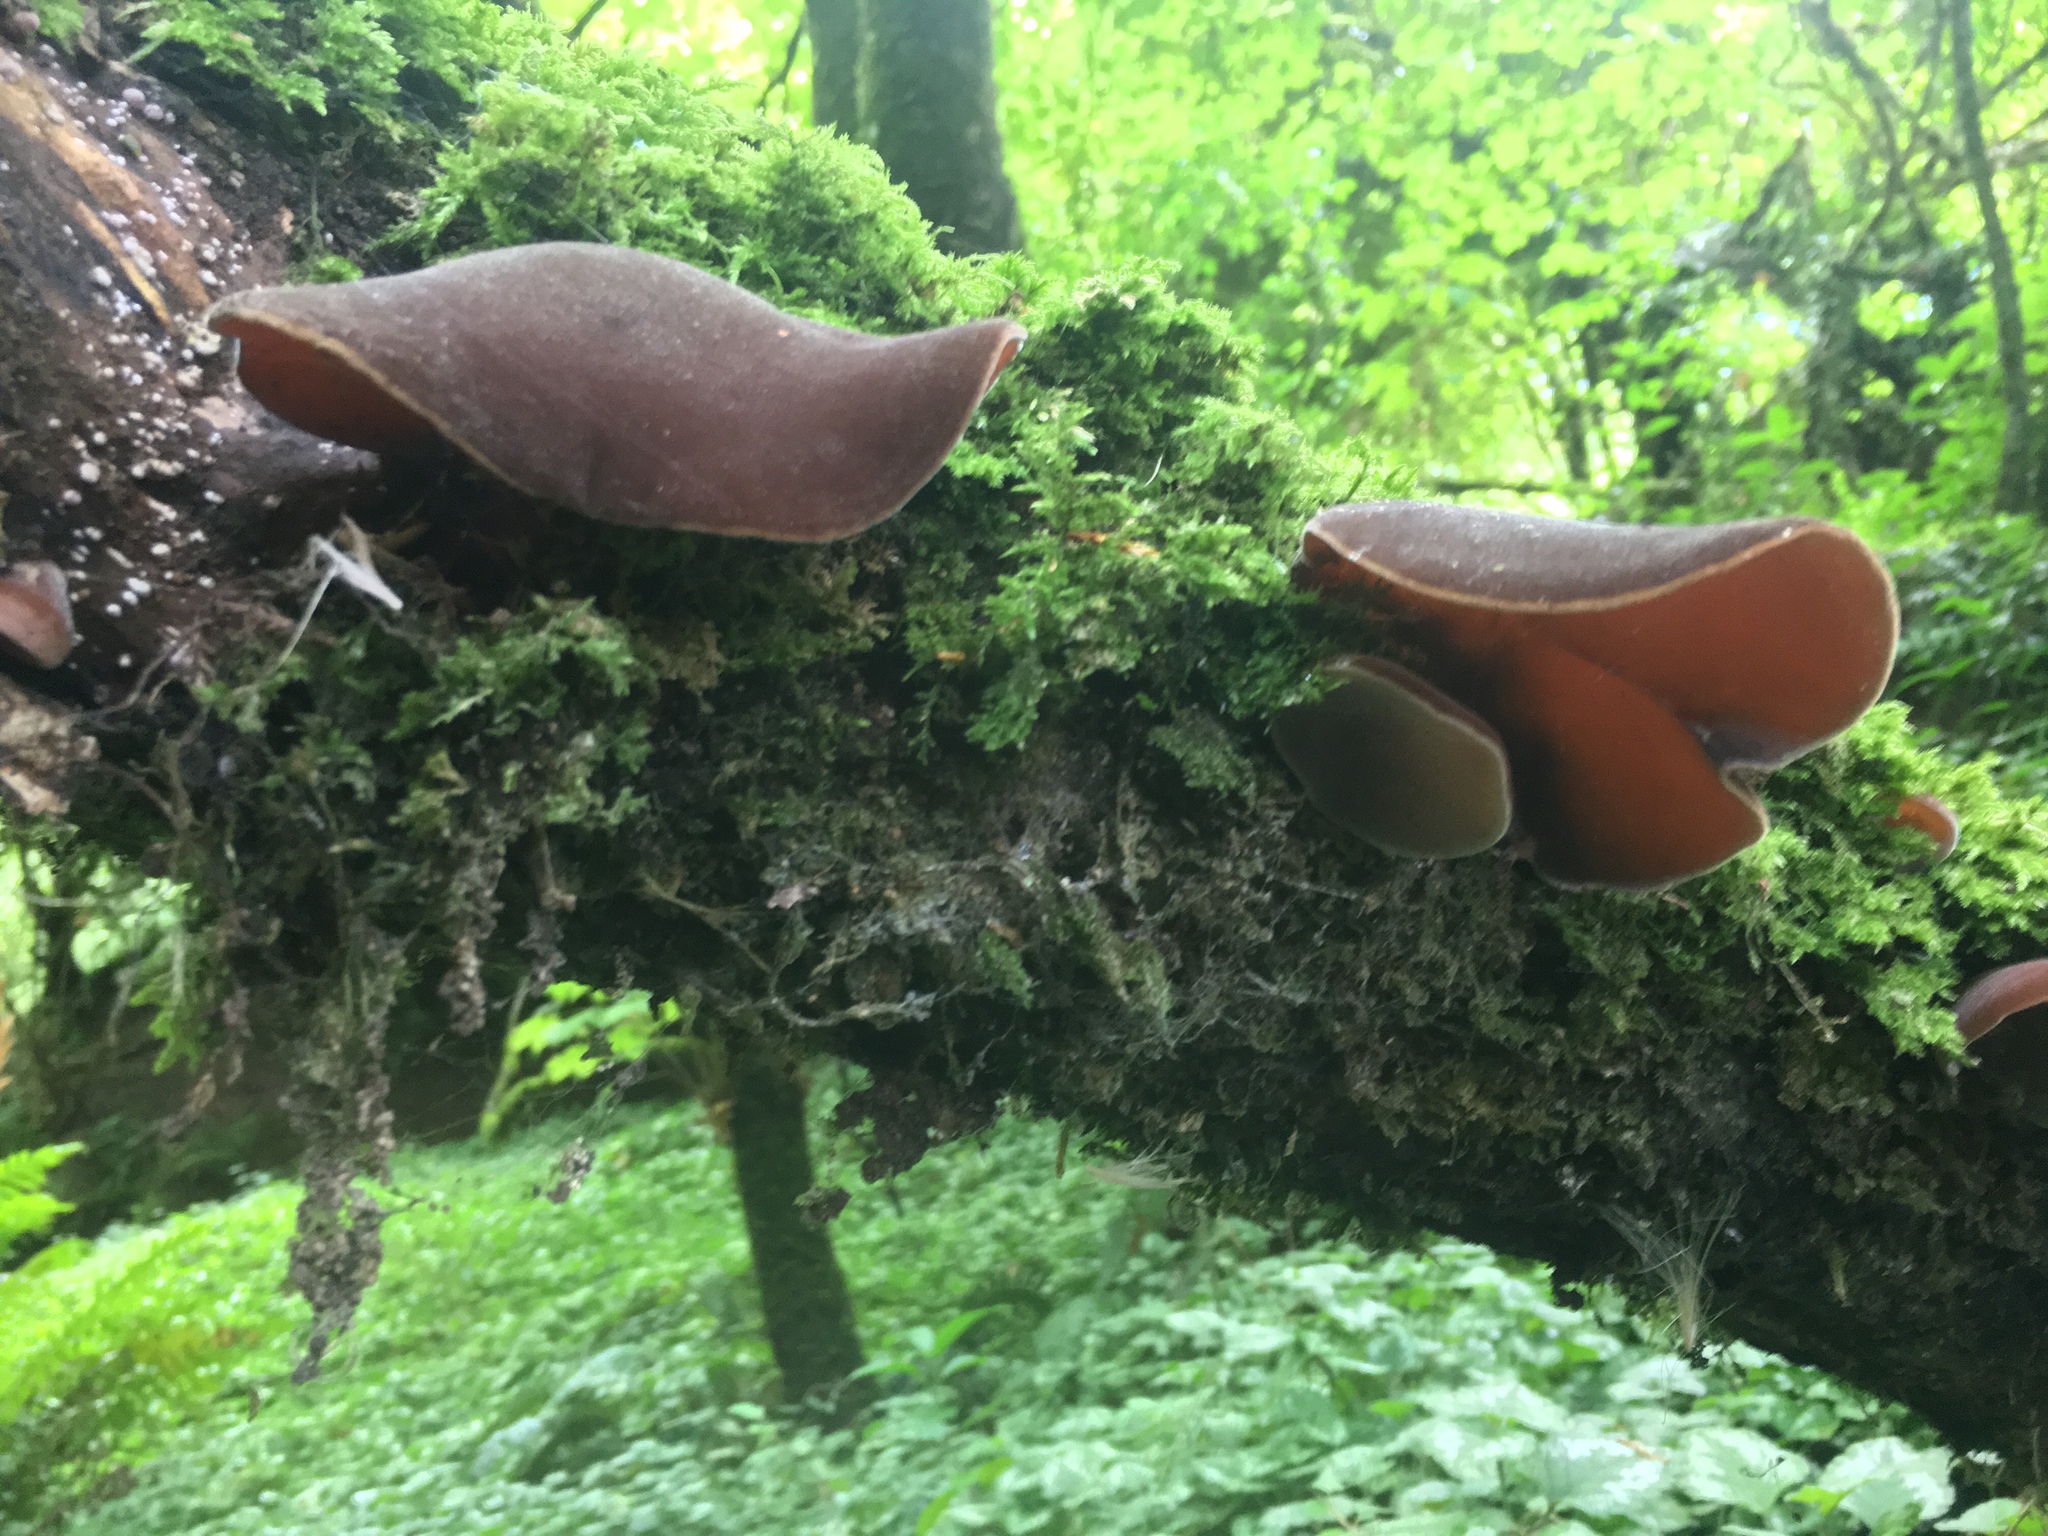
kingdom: Fungi
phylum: Basidiomycota
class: Agaricomycetes
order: Auriculariales
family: Auriculariaceae
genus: Auricularia
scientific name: Auricularia cornea
